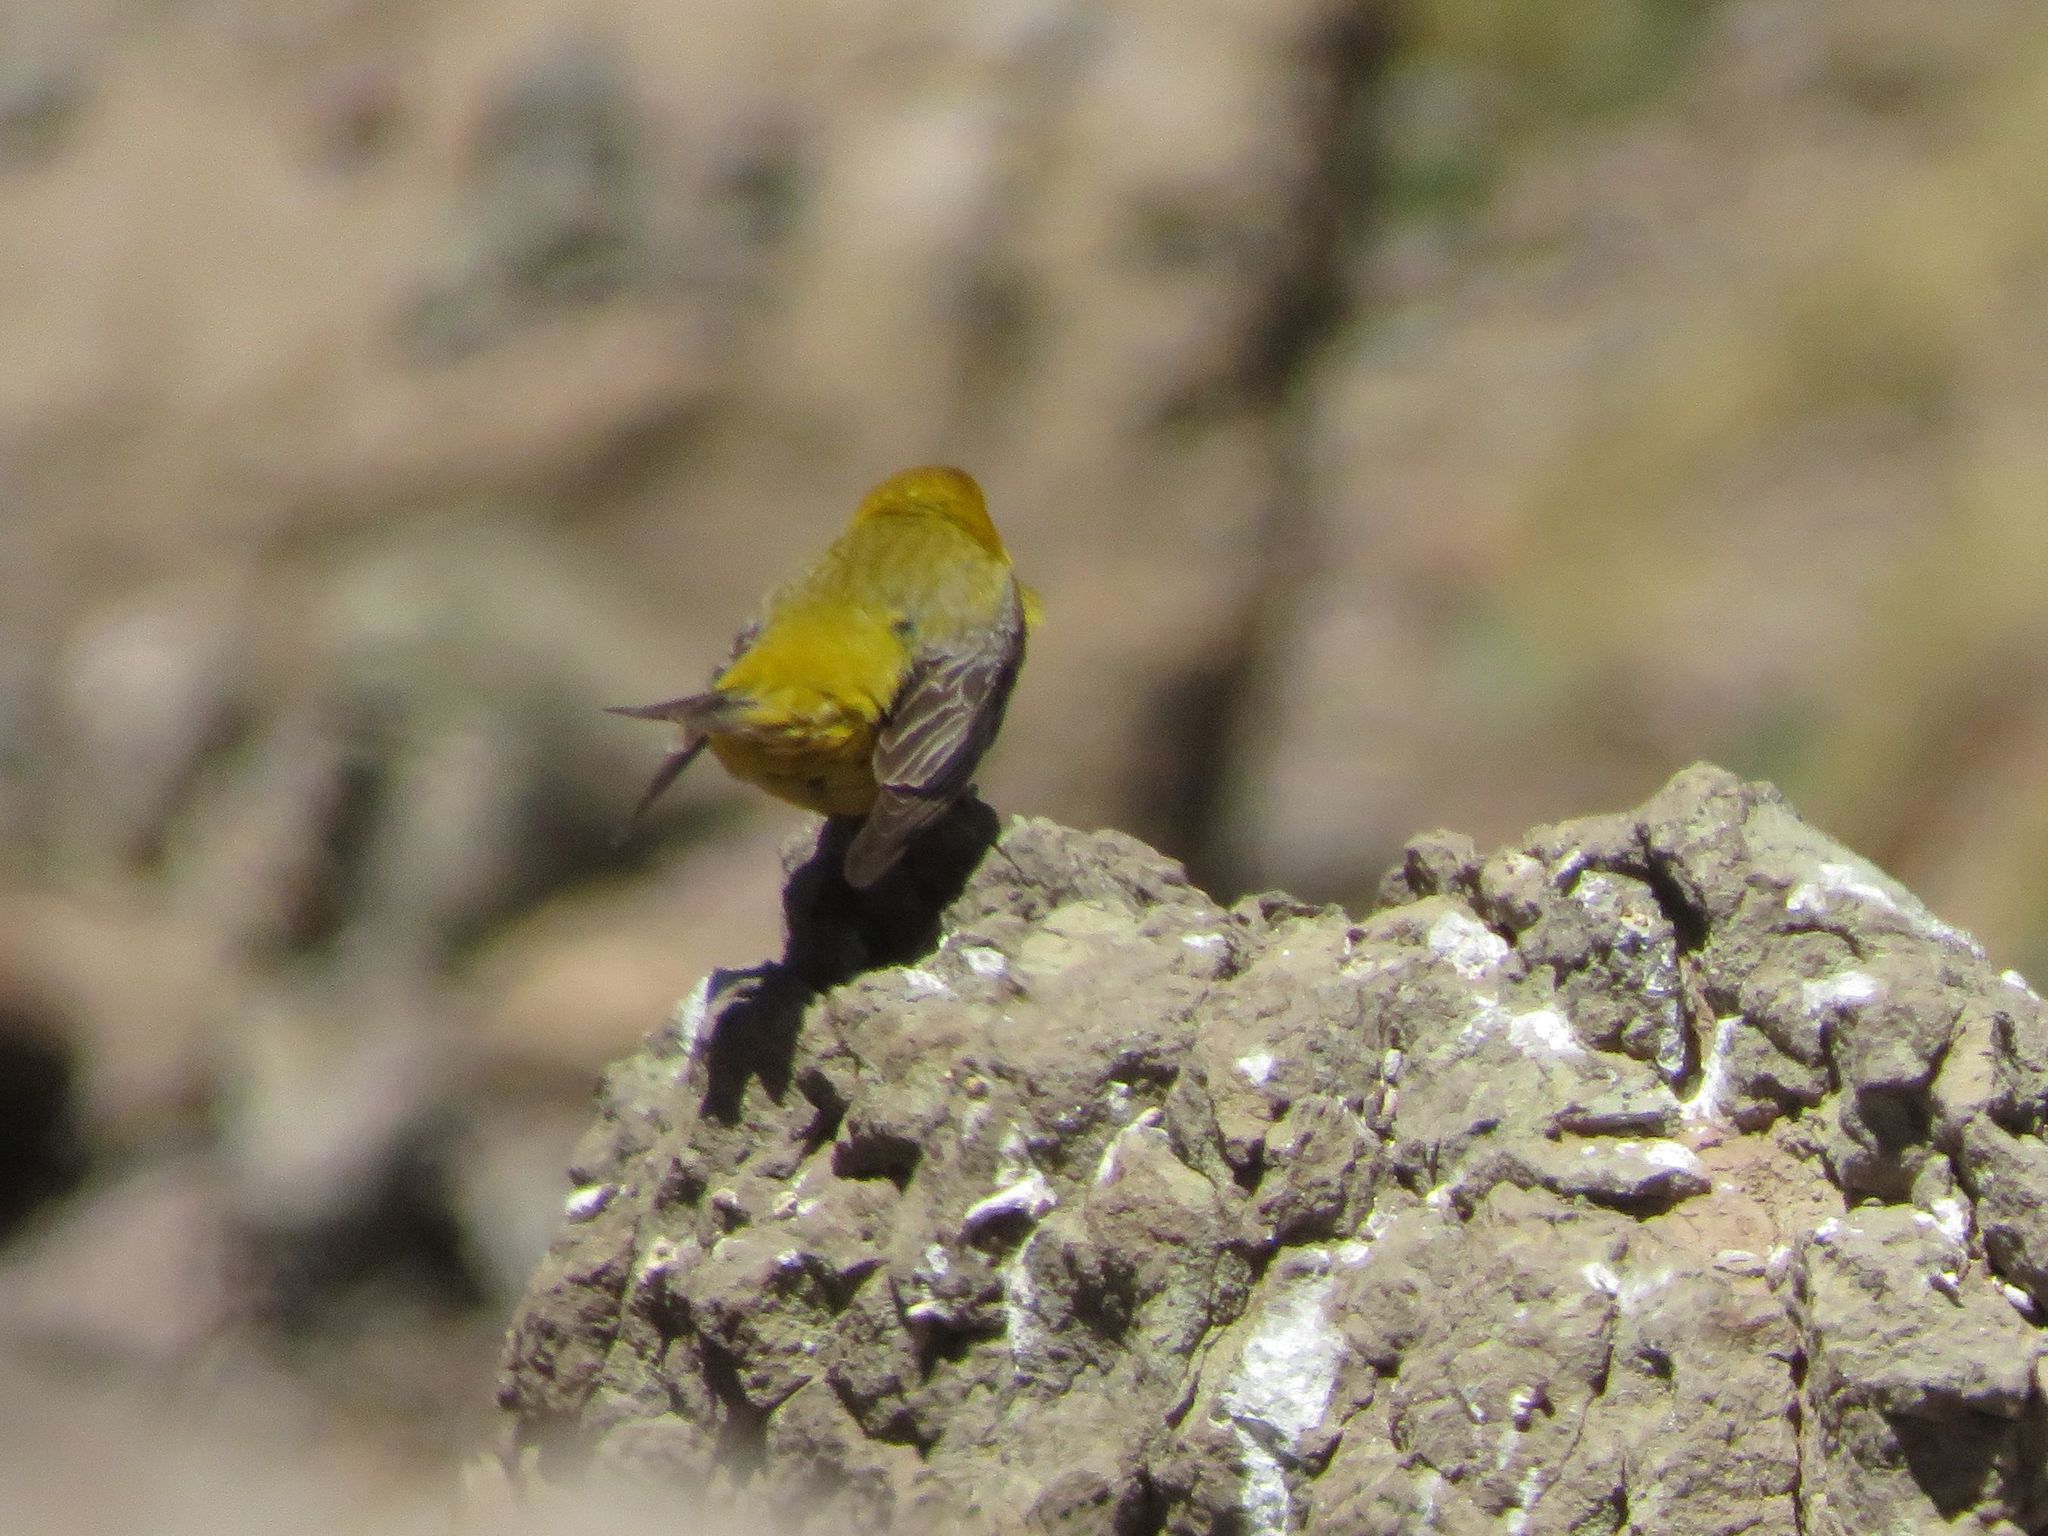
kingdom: Animalia
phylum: Chordata
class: Aves
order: Passeriformes
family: Thraupidae
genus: Sicalis
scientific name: Sicalis auriventris
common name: Greater yellow finch
